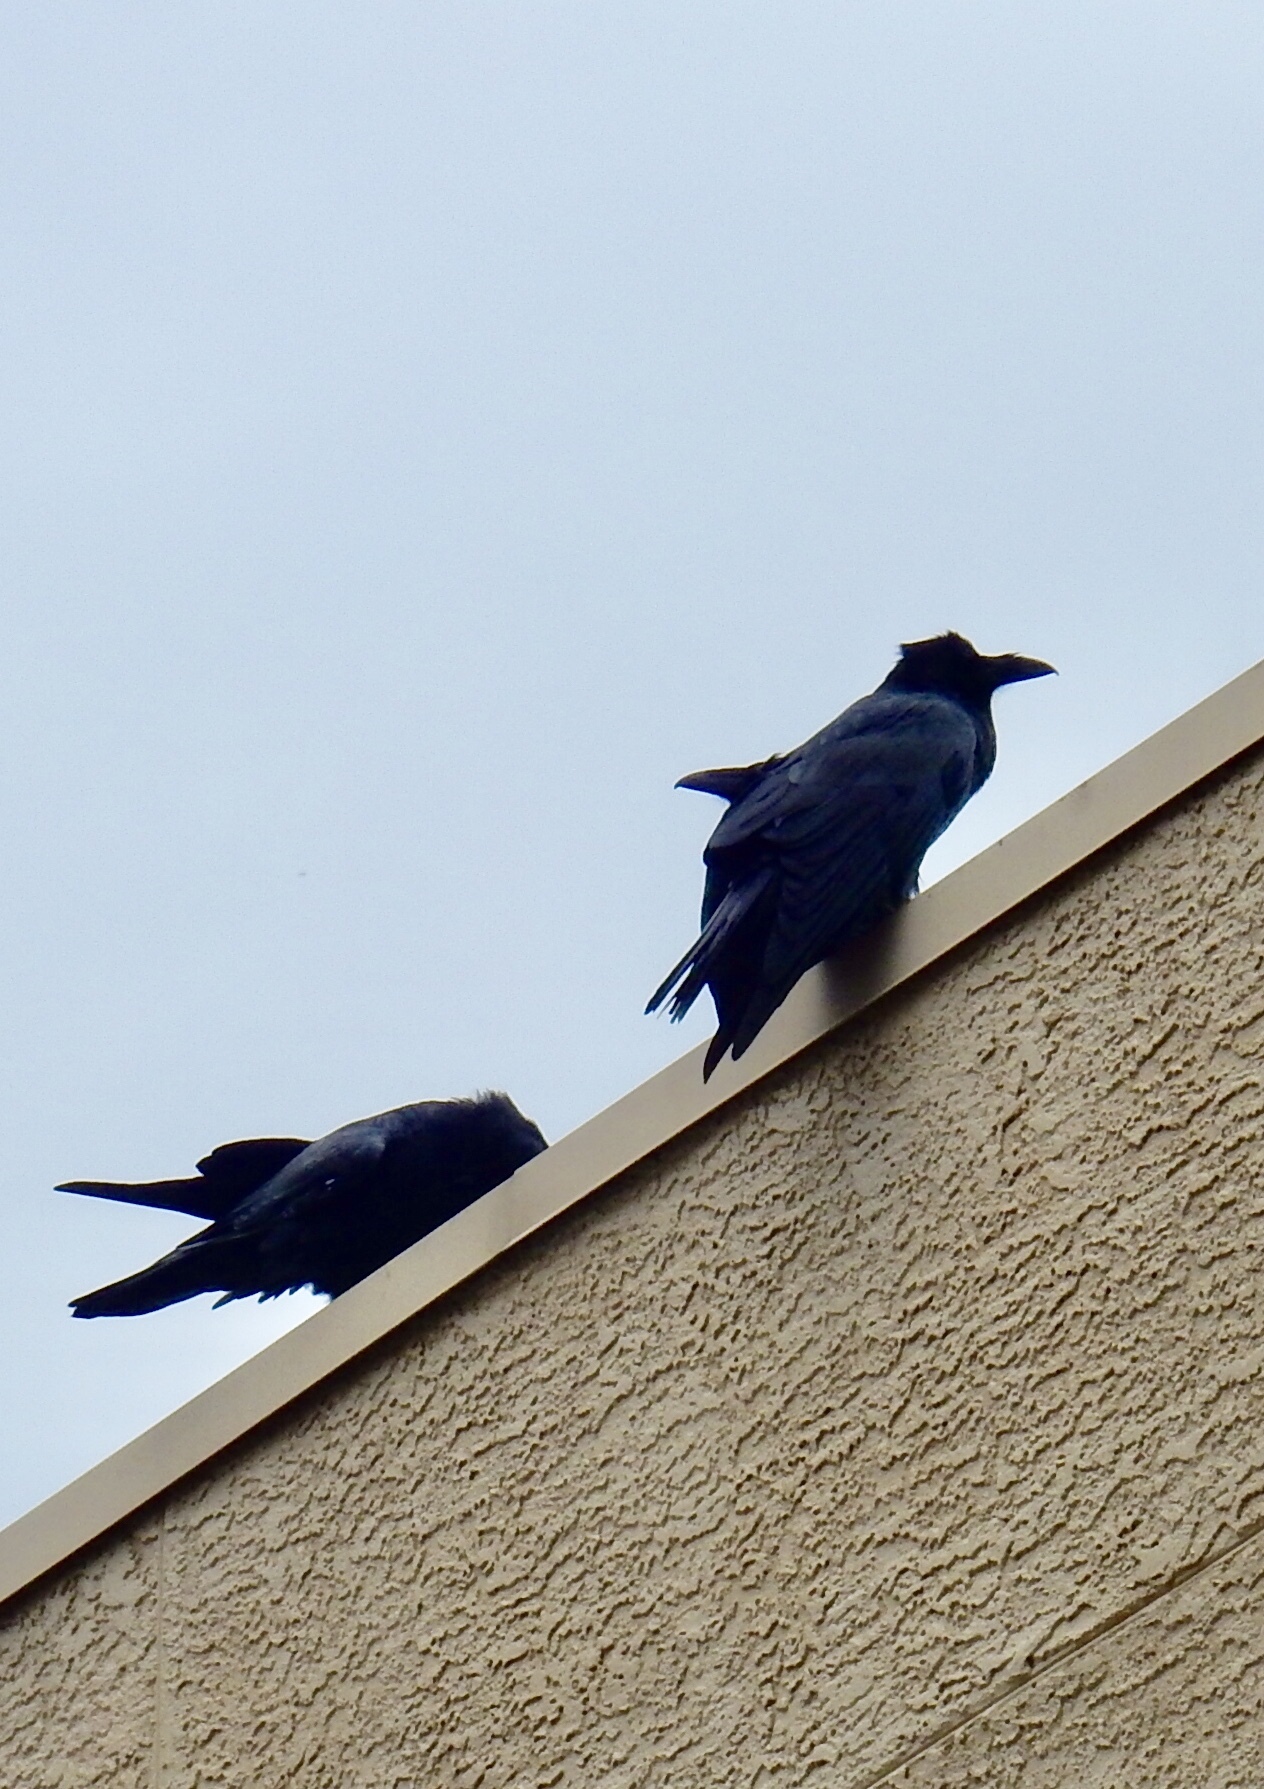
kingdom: Animalia
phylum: Chordata
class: Aves
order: Passeriformes
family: Corvidae
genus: Corvus
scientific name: Corvus corax
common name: Common raven
